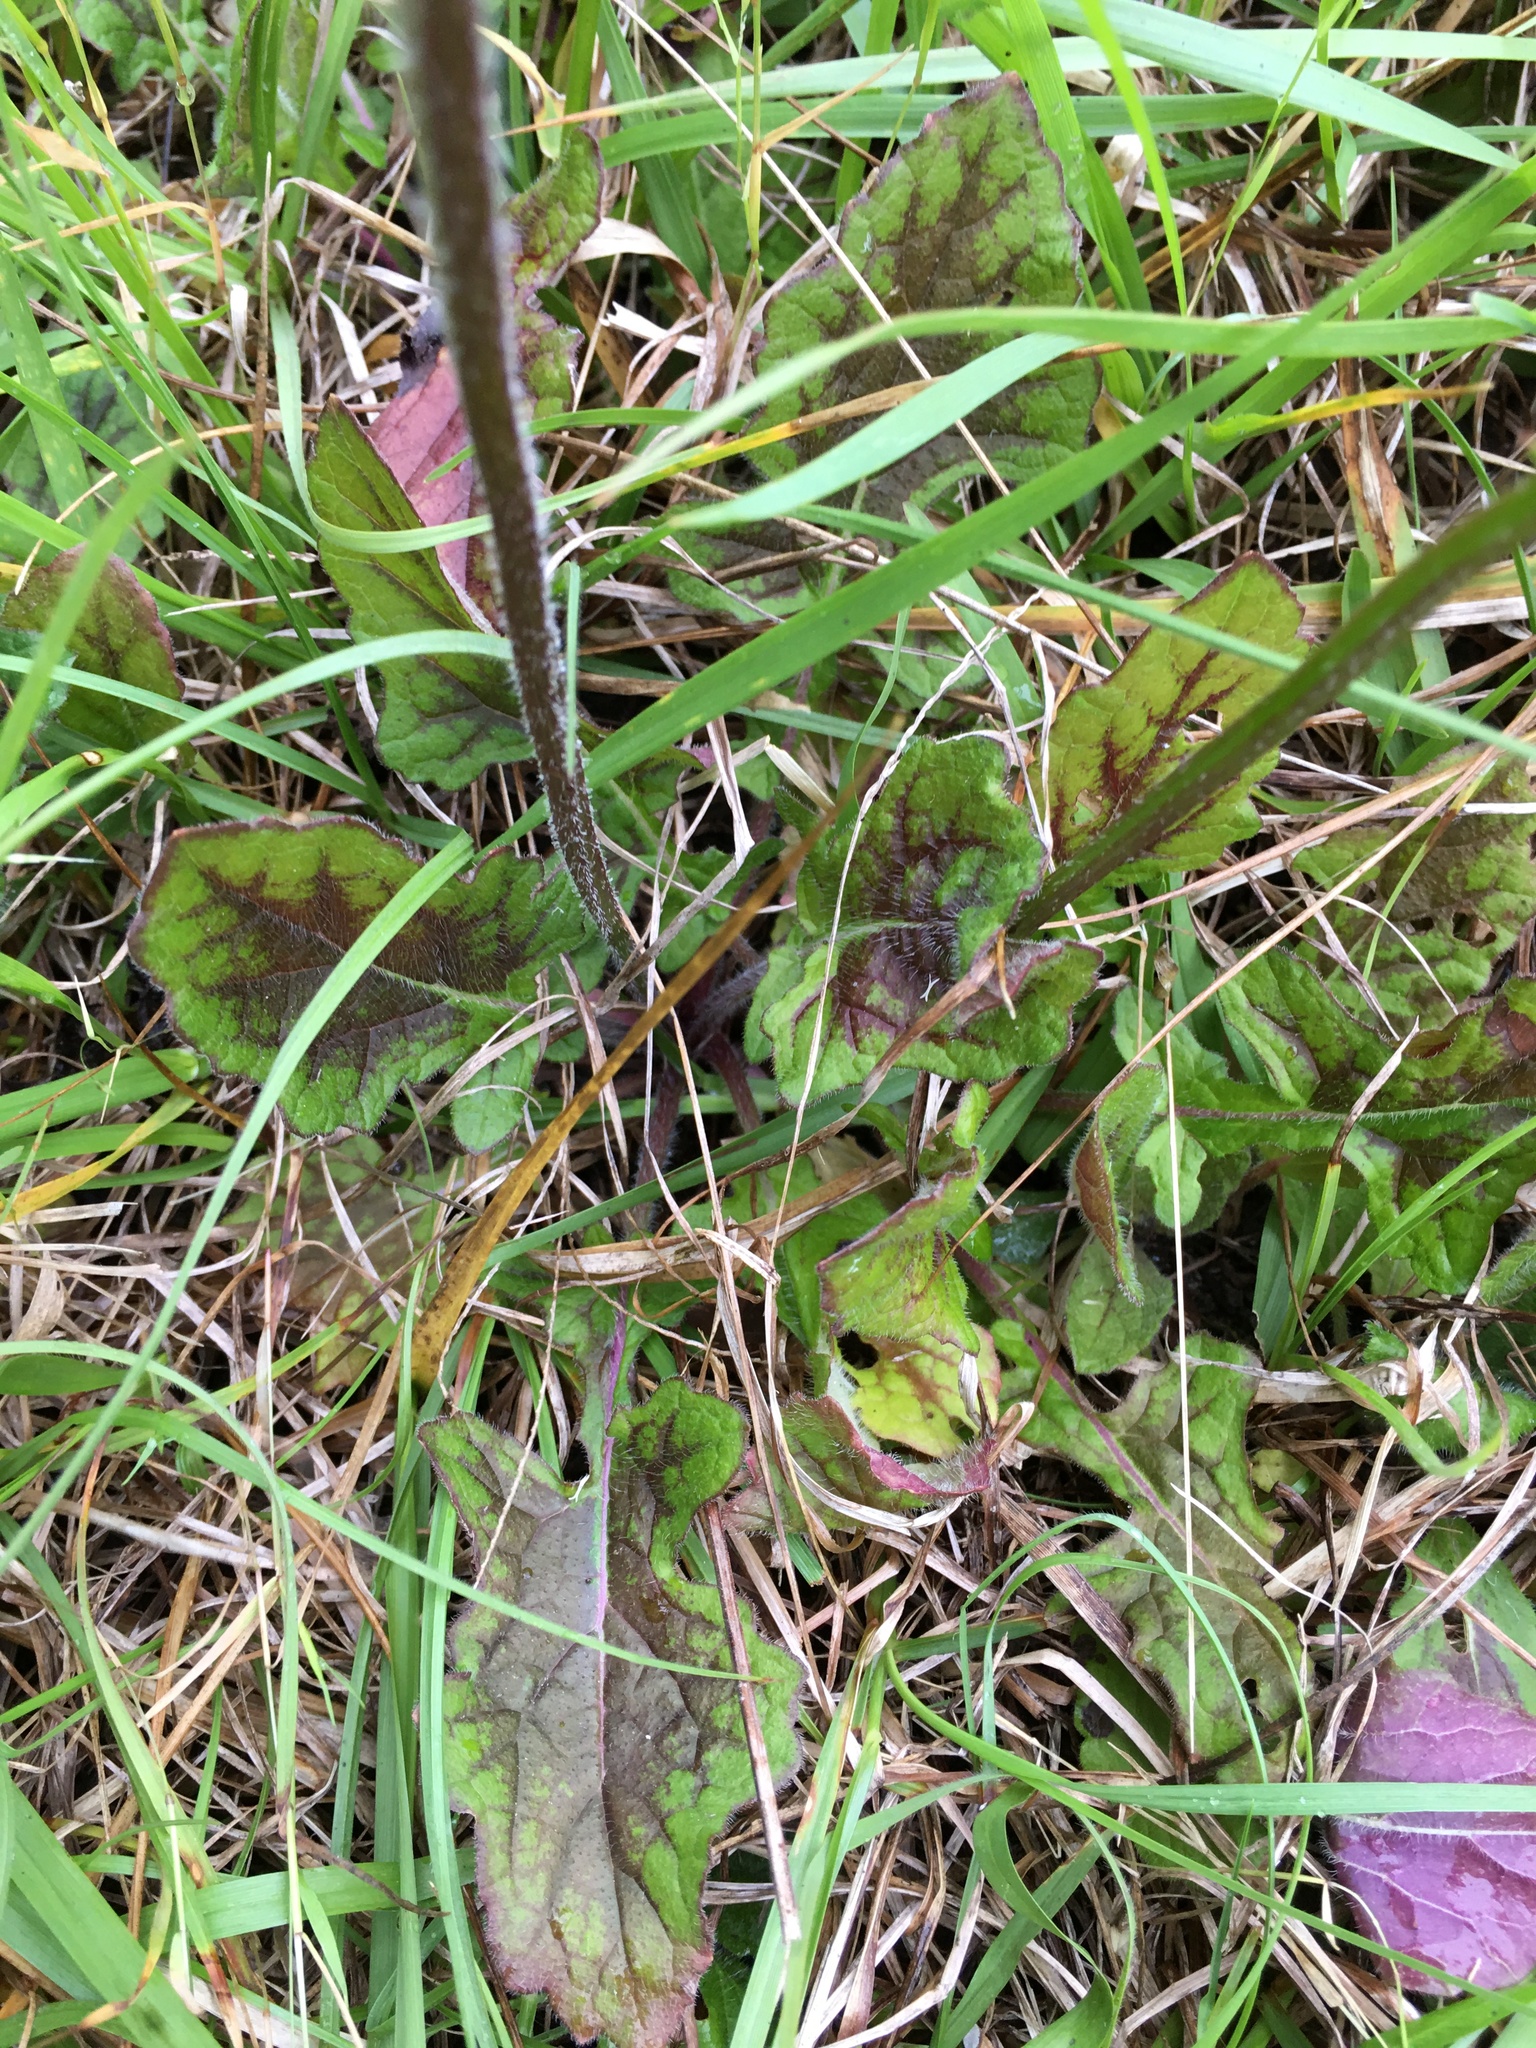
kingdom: Plantae
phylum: Tracheophyta
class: Magnoliopsida
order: Lamiales
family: Lamiaceae
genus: Salvia
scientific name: Salvia lyrata
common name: Cancerweed
